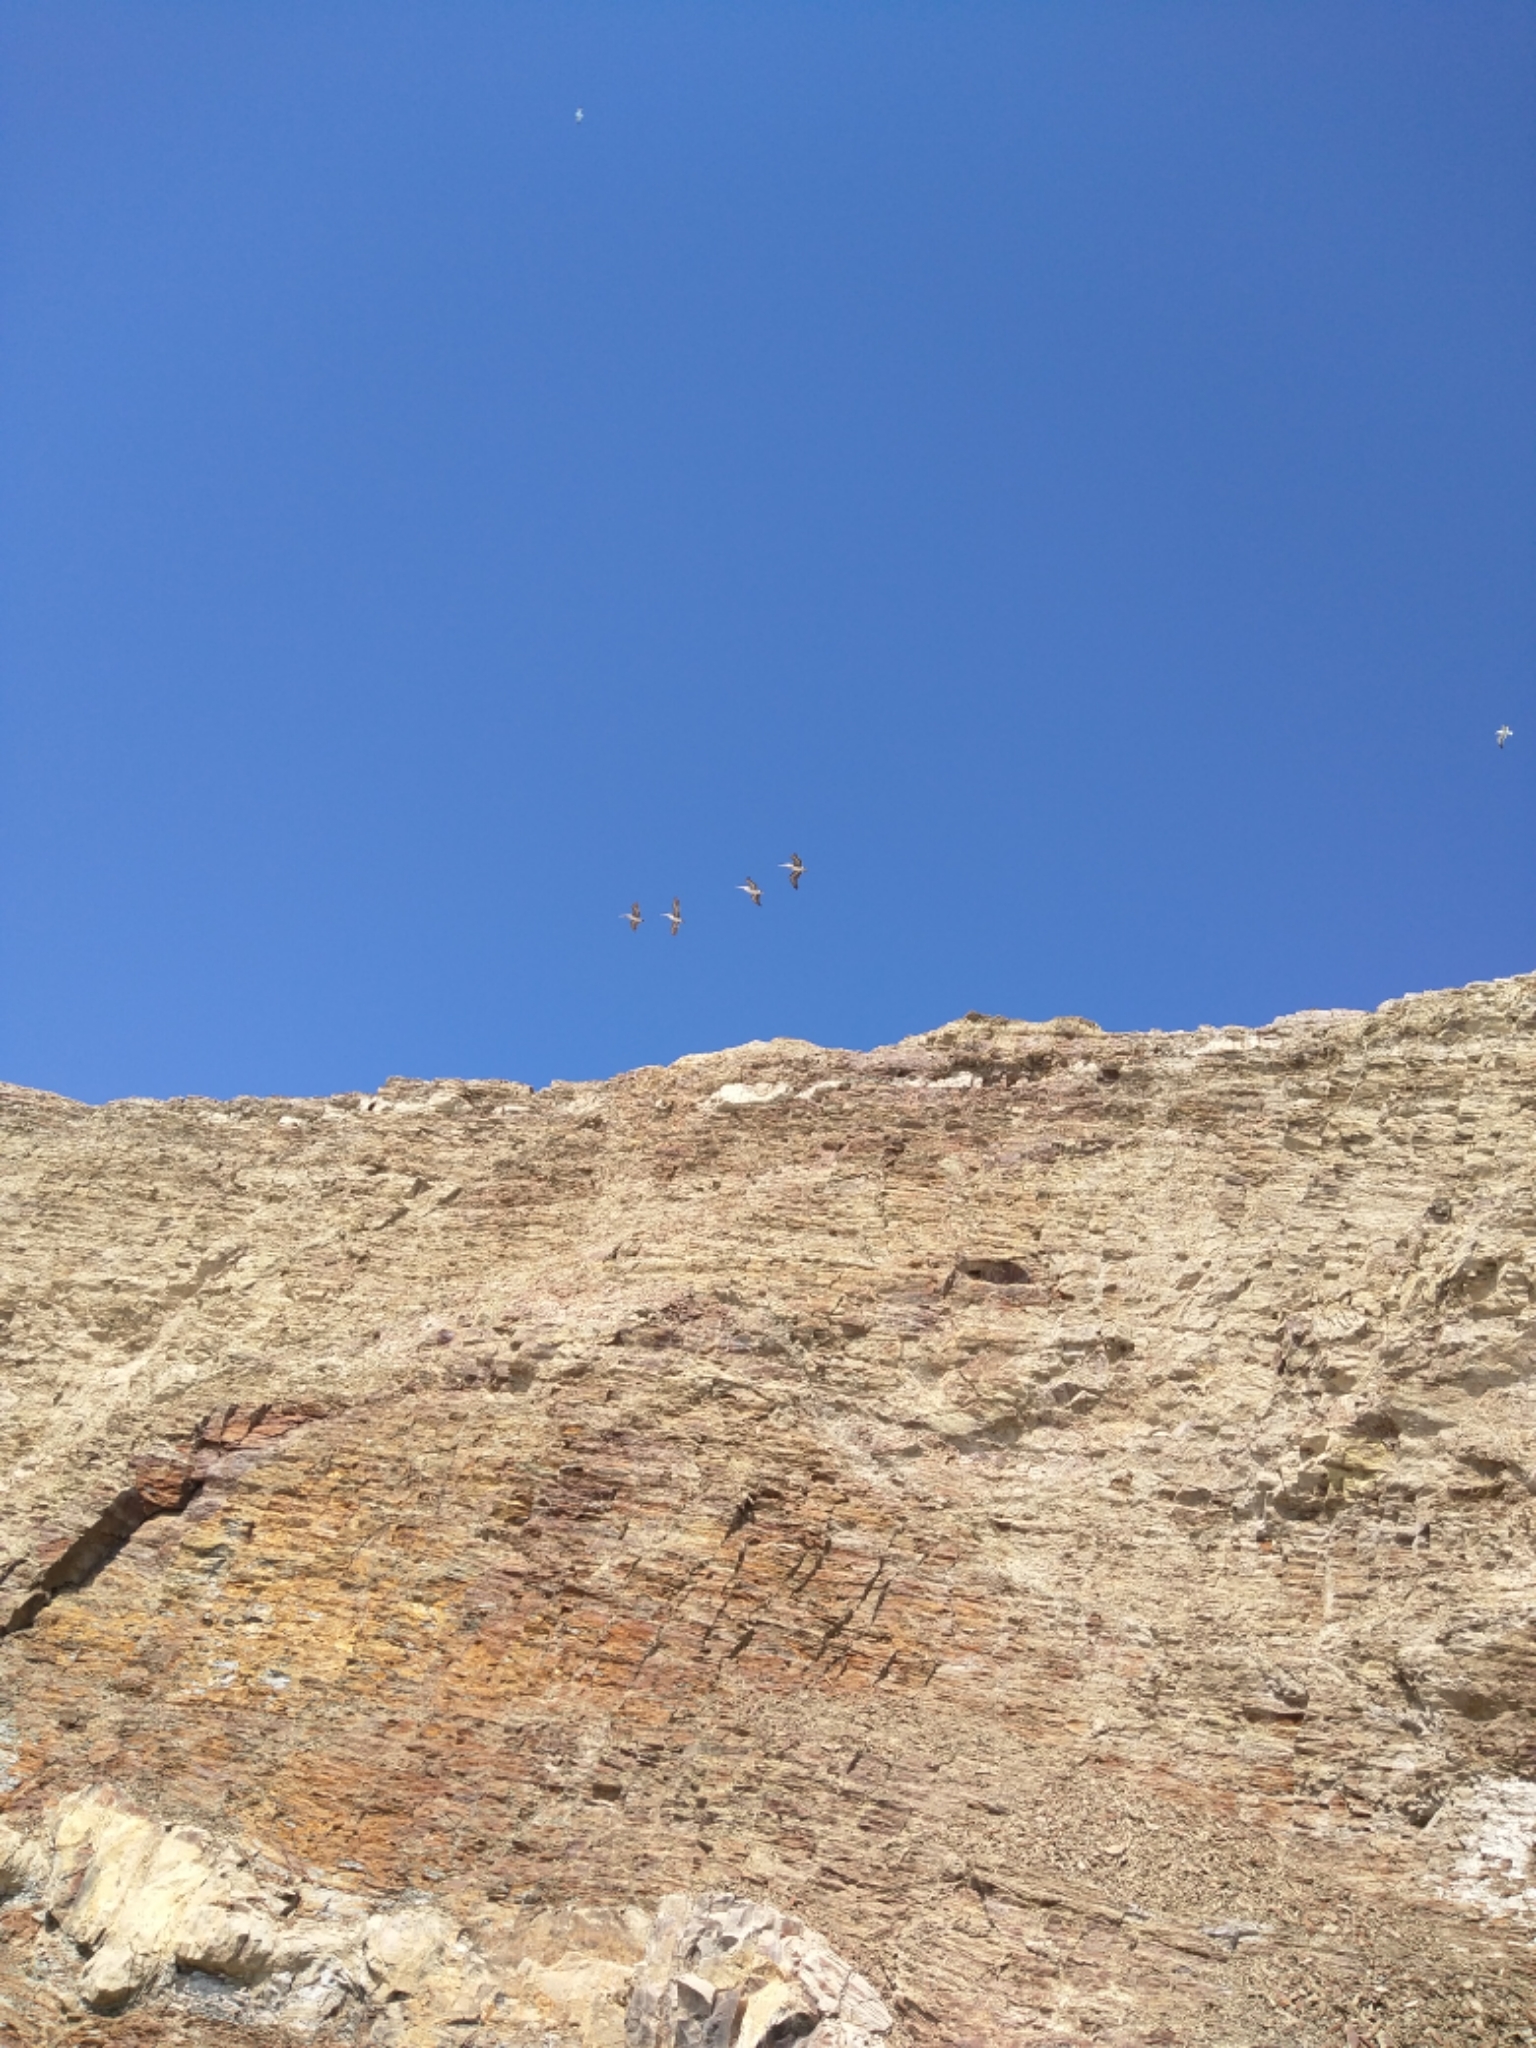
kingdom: Animalia
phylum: Chordata
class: Aves
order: Pelecaniformes
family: Pelecanidae
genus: Pelecanus
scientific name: Pelecanus occidentalis
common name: Brown pelican
